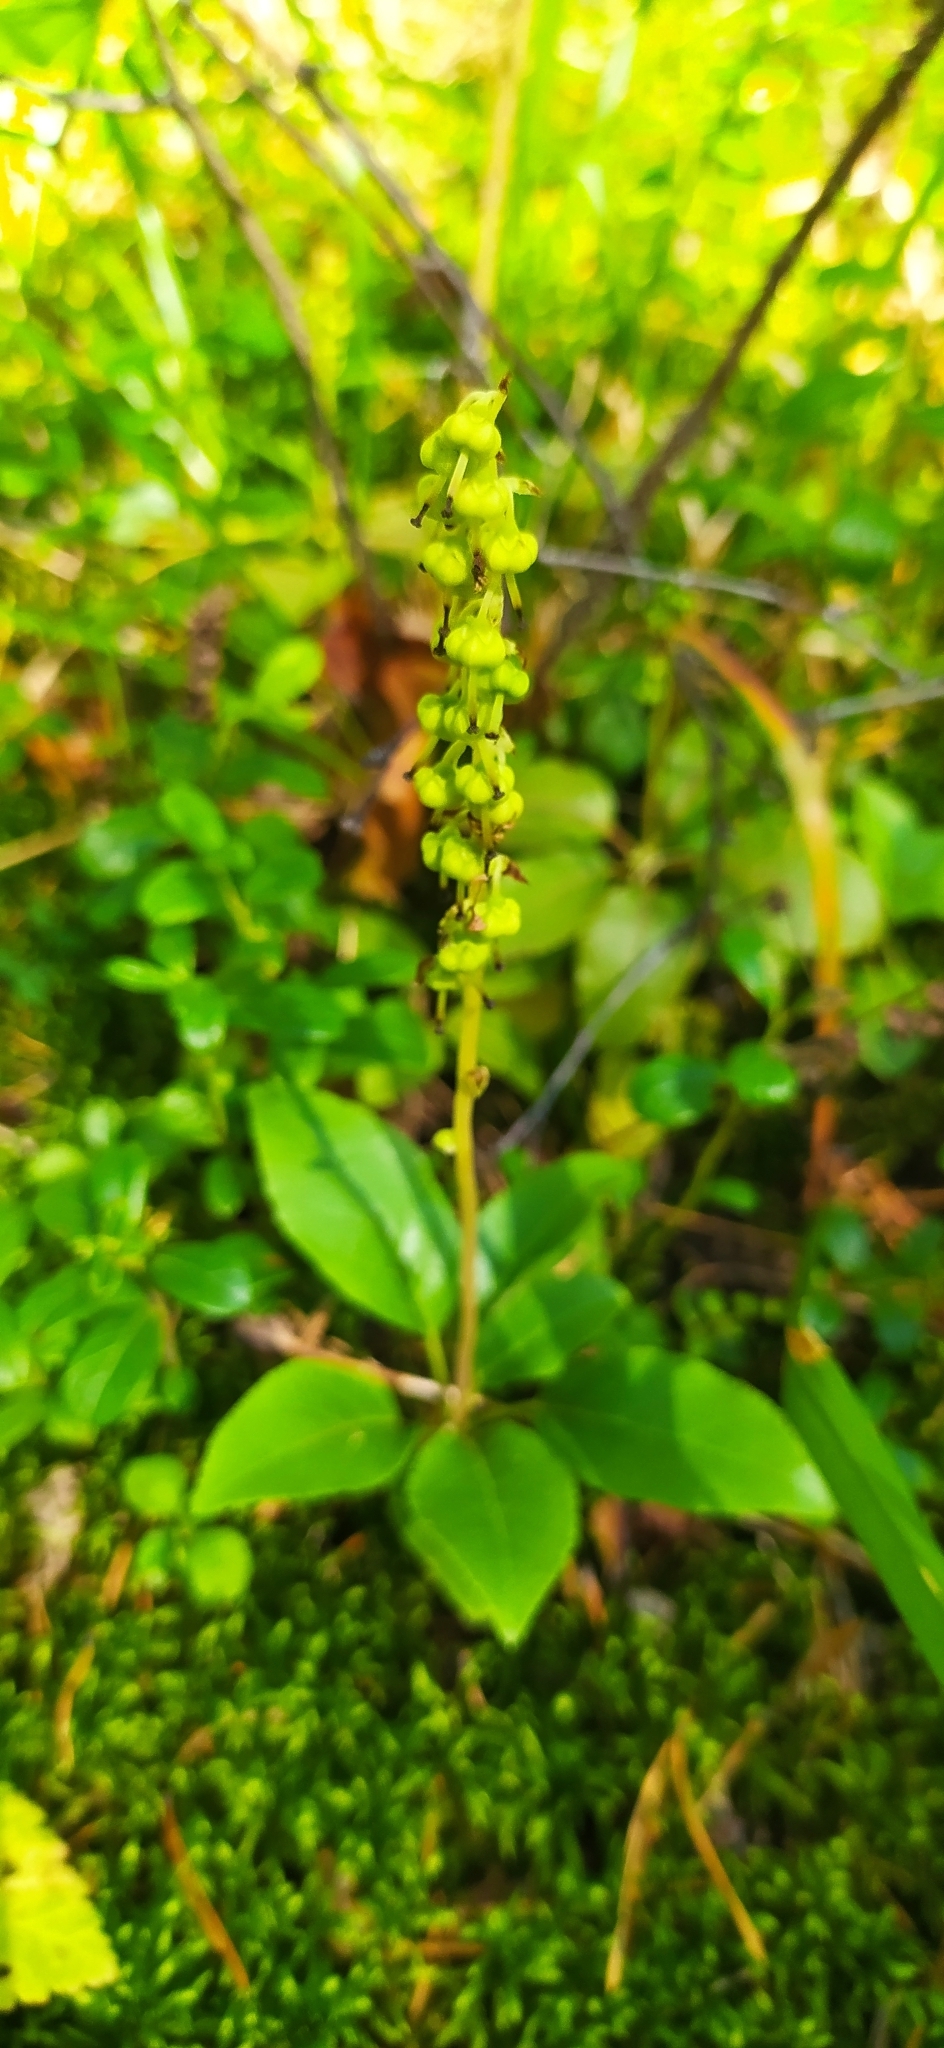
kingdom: Plantae
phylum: Tracheophyta
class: Magnoliopsida
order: Ericales
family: Ericaceae
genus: Orthilia
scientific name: Orthilia secunda
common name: One-sided orthilia
